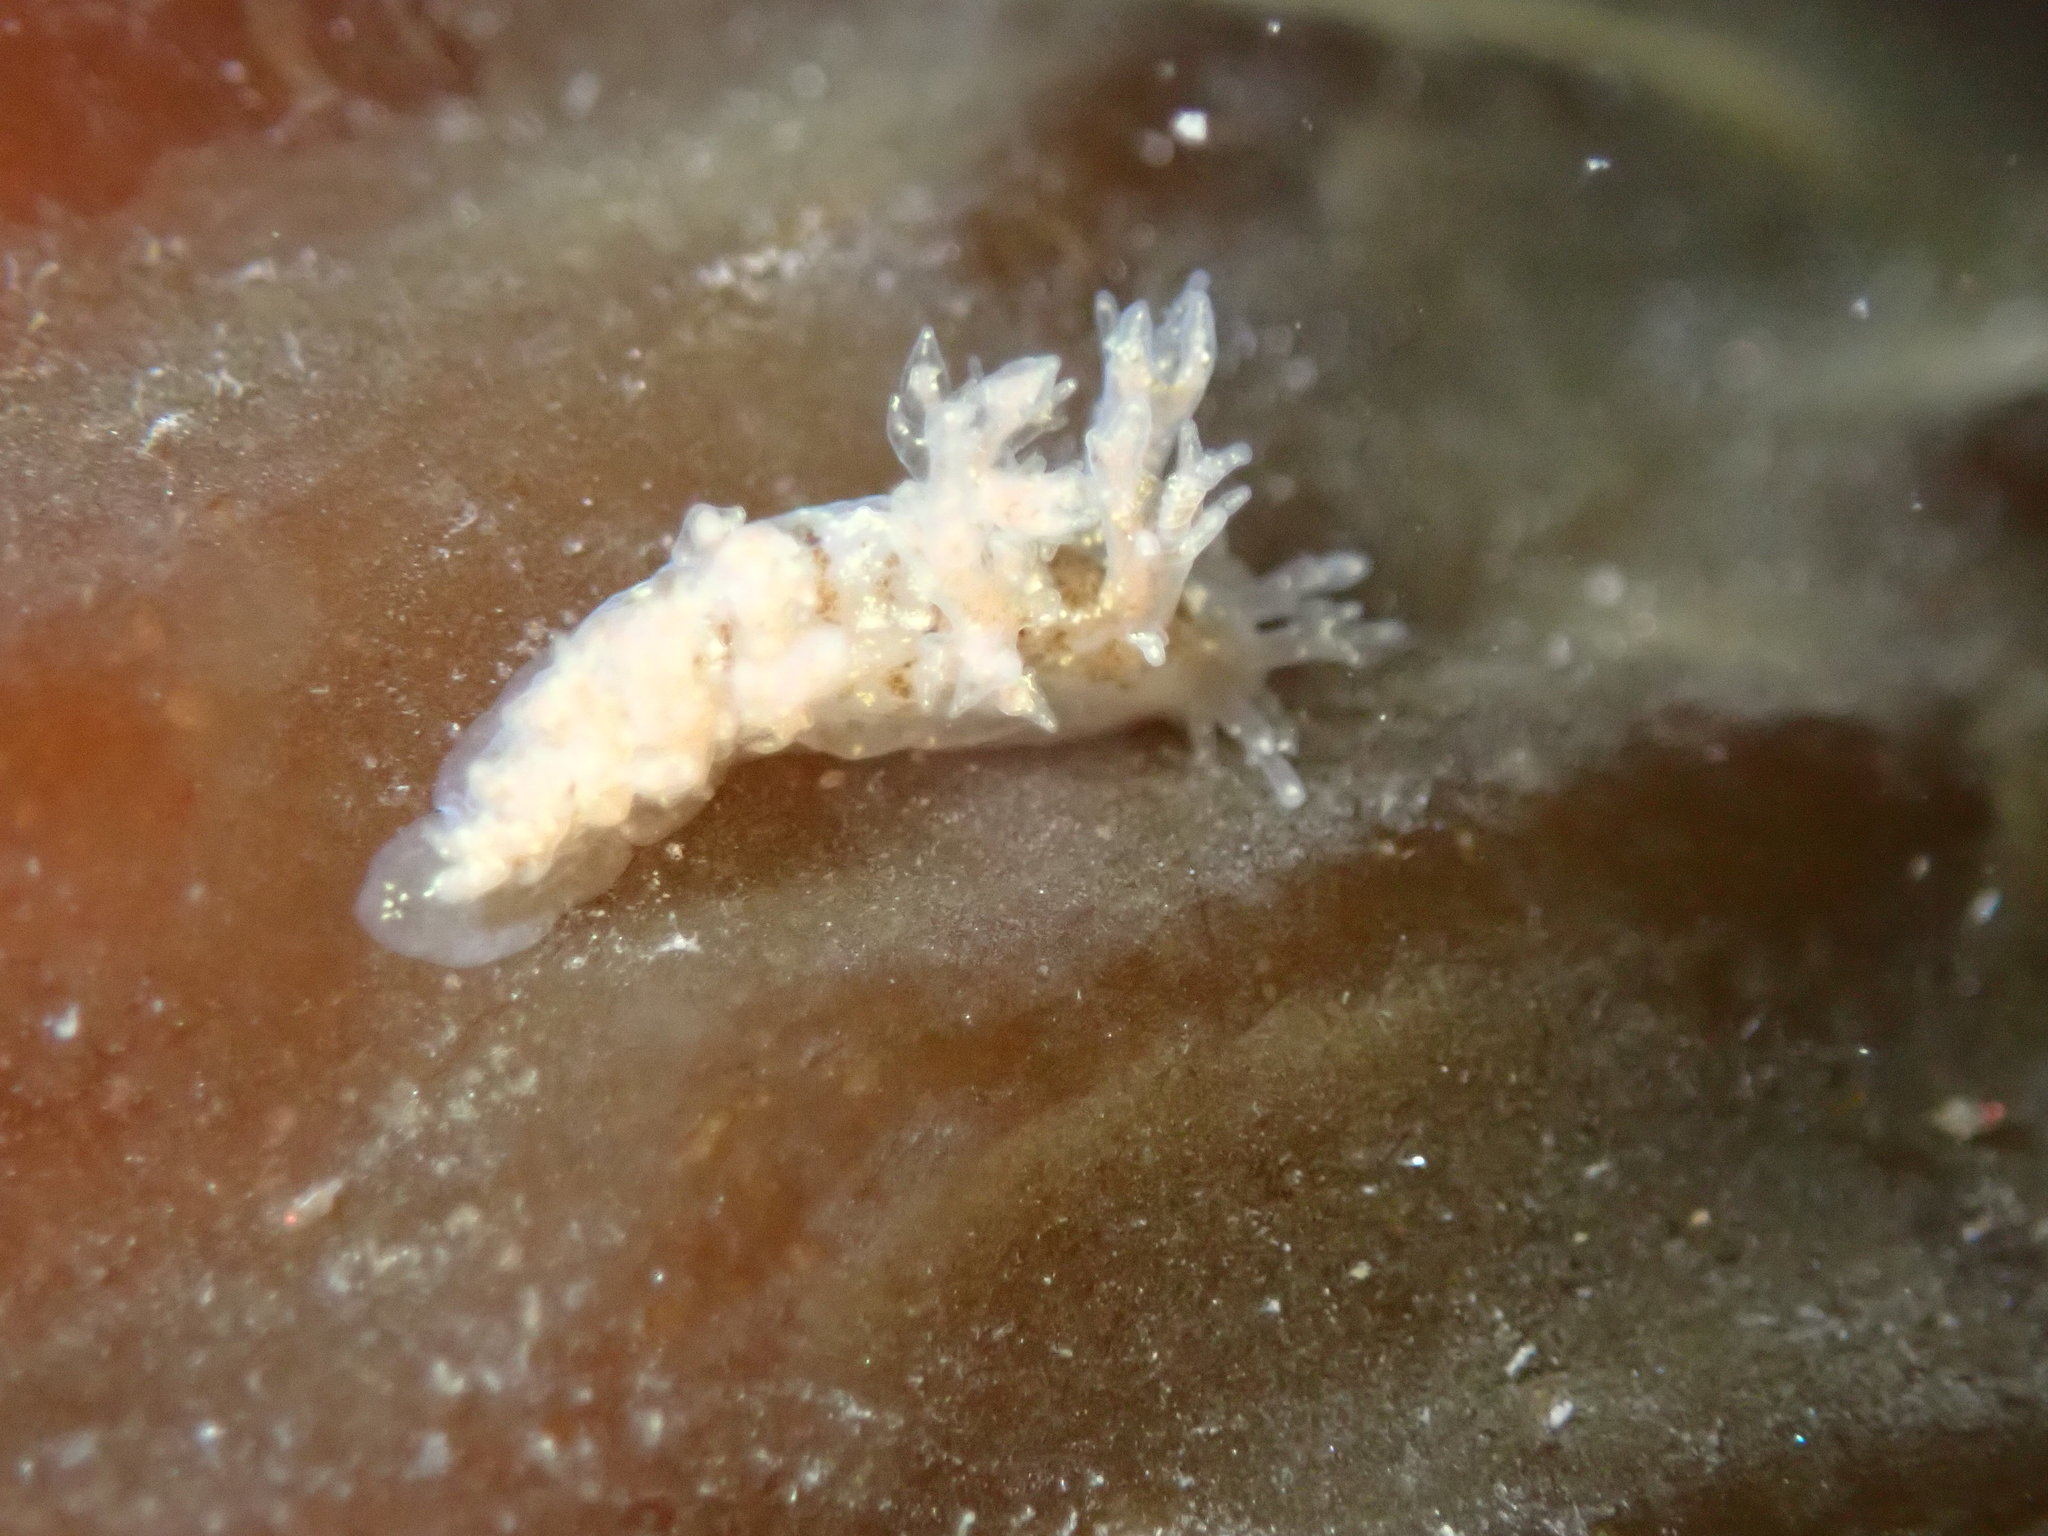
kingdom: Animalia
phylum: Mollusca
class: Gastropoda
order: Nudibranchia
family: Dendronotidae
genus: Dendronotus
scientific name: Dendronotus venustus
